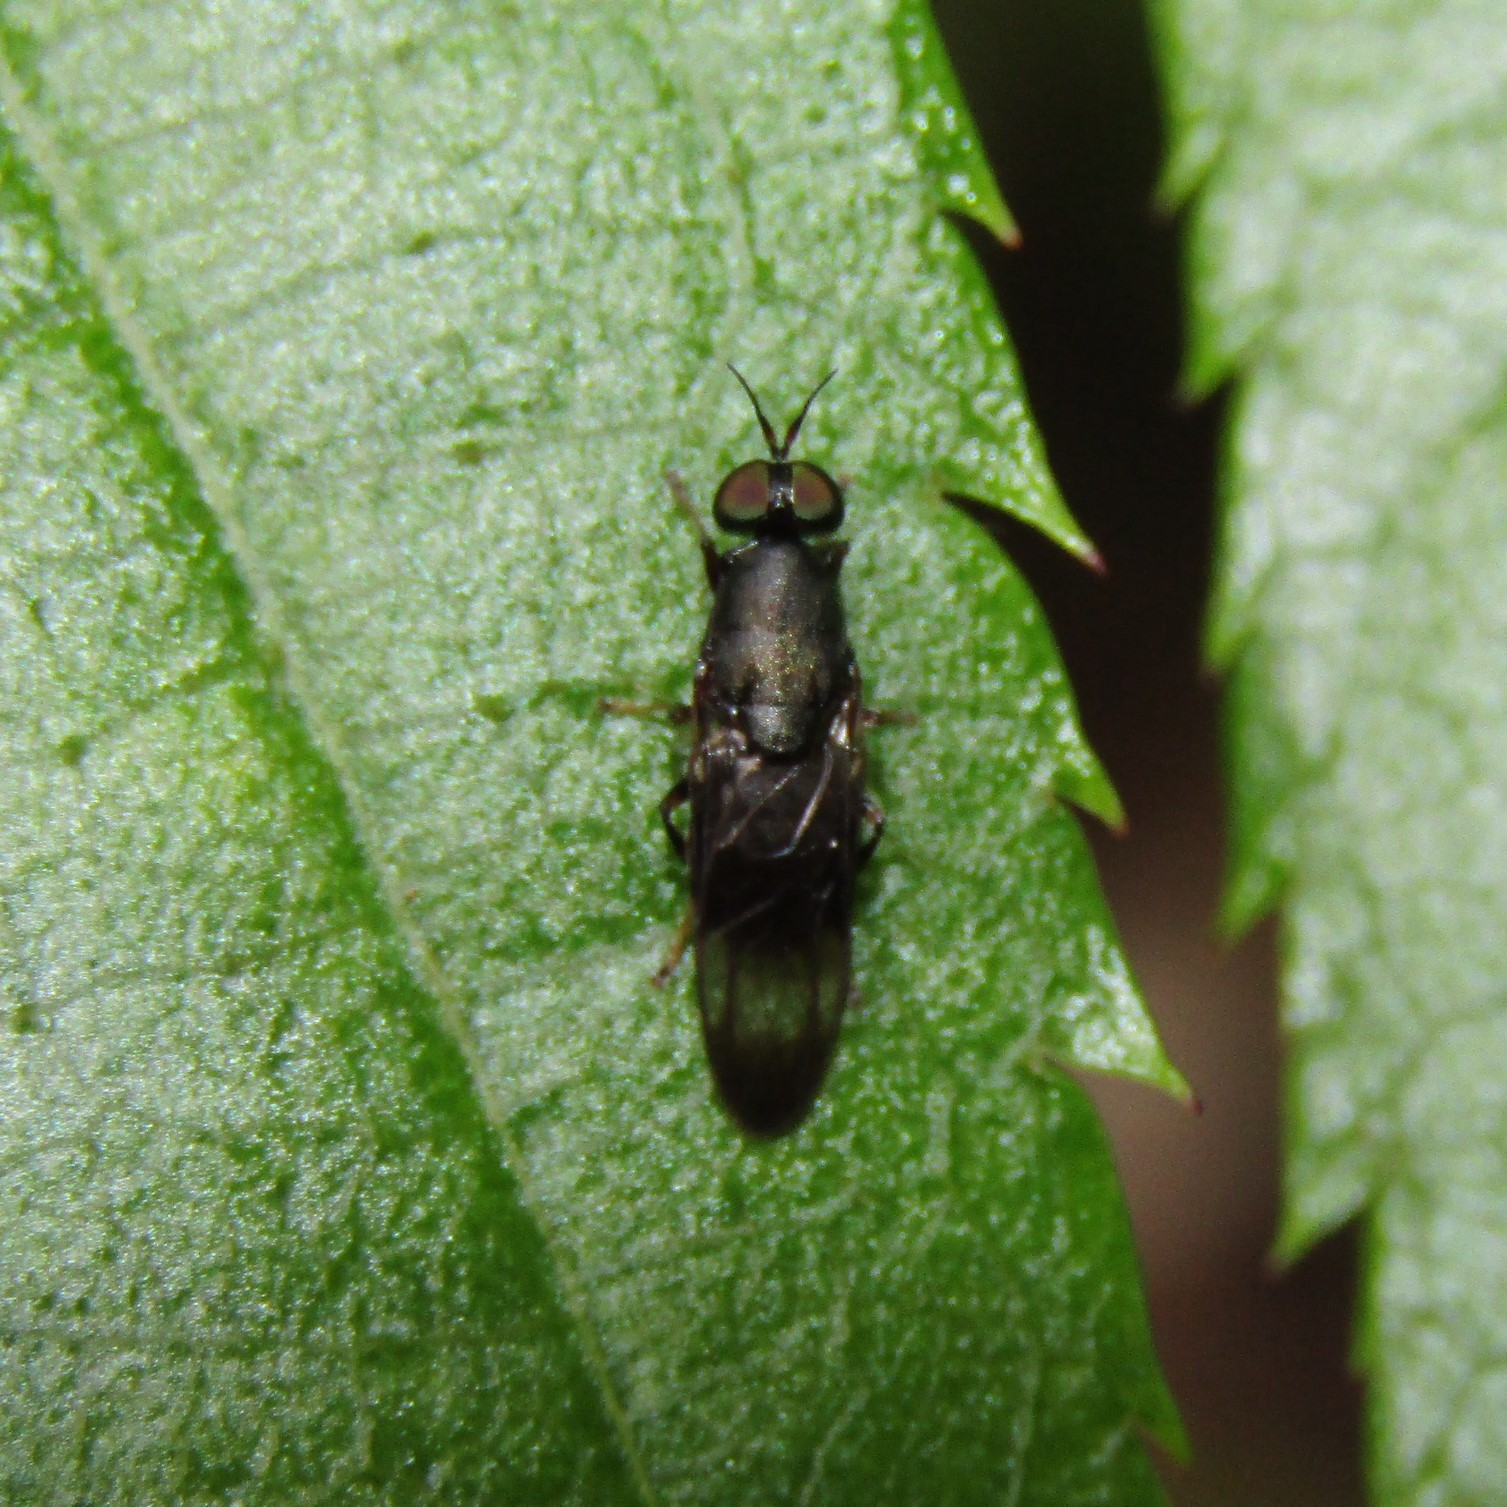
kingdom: Animalia
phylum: Arthropoda
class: Insecta
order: Diptera
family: Stratiomyidae
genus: Dysbiota
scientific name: Dysbiota peregrina
